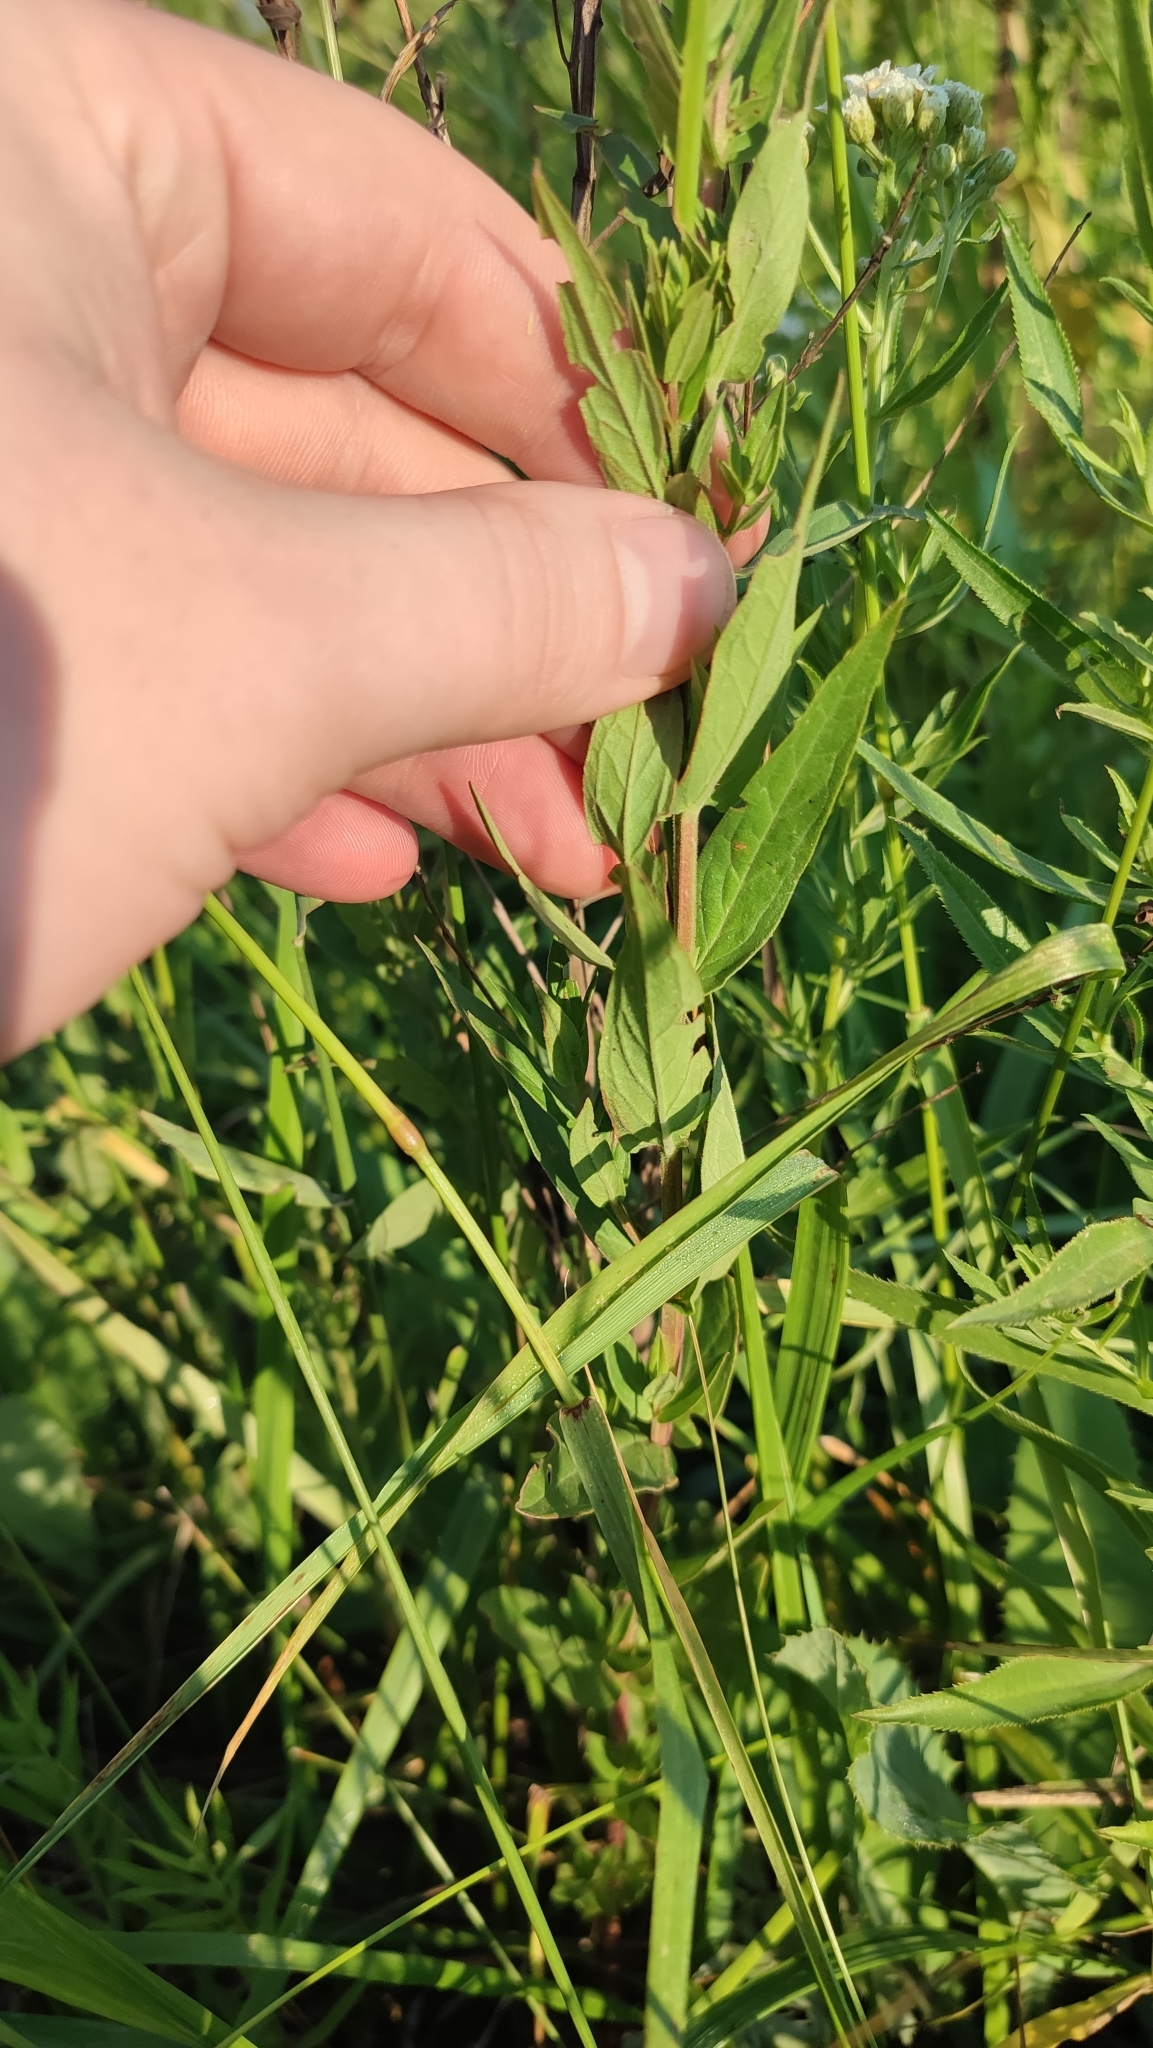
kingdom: Plantae
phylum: Tracheophyta
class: Magnoliopsida
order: Myrtales
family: Lythraceae
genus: Lythrum
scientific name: Lythrum salicaria
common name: Purple loosestrife
